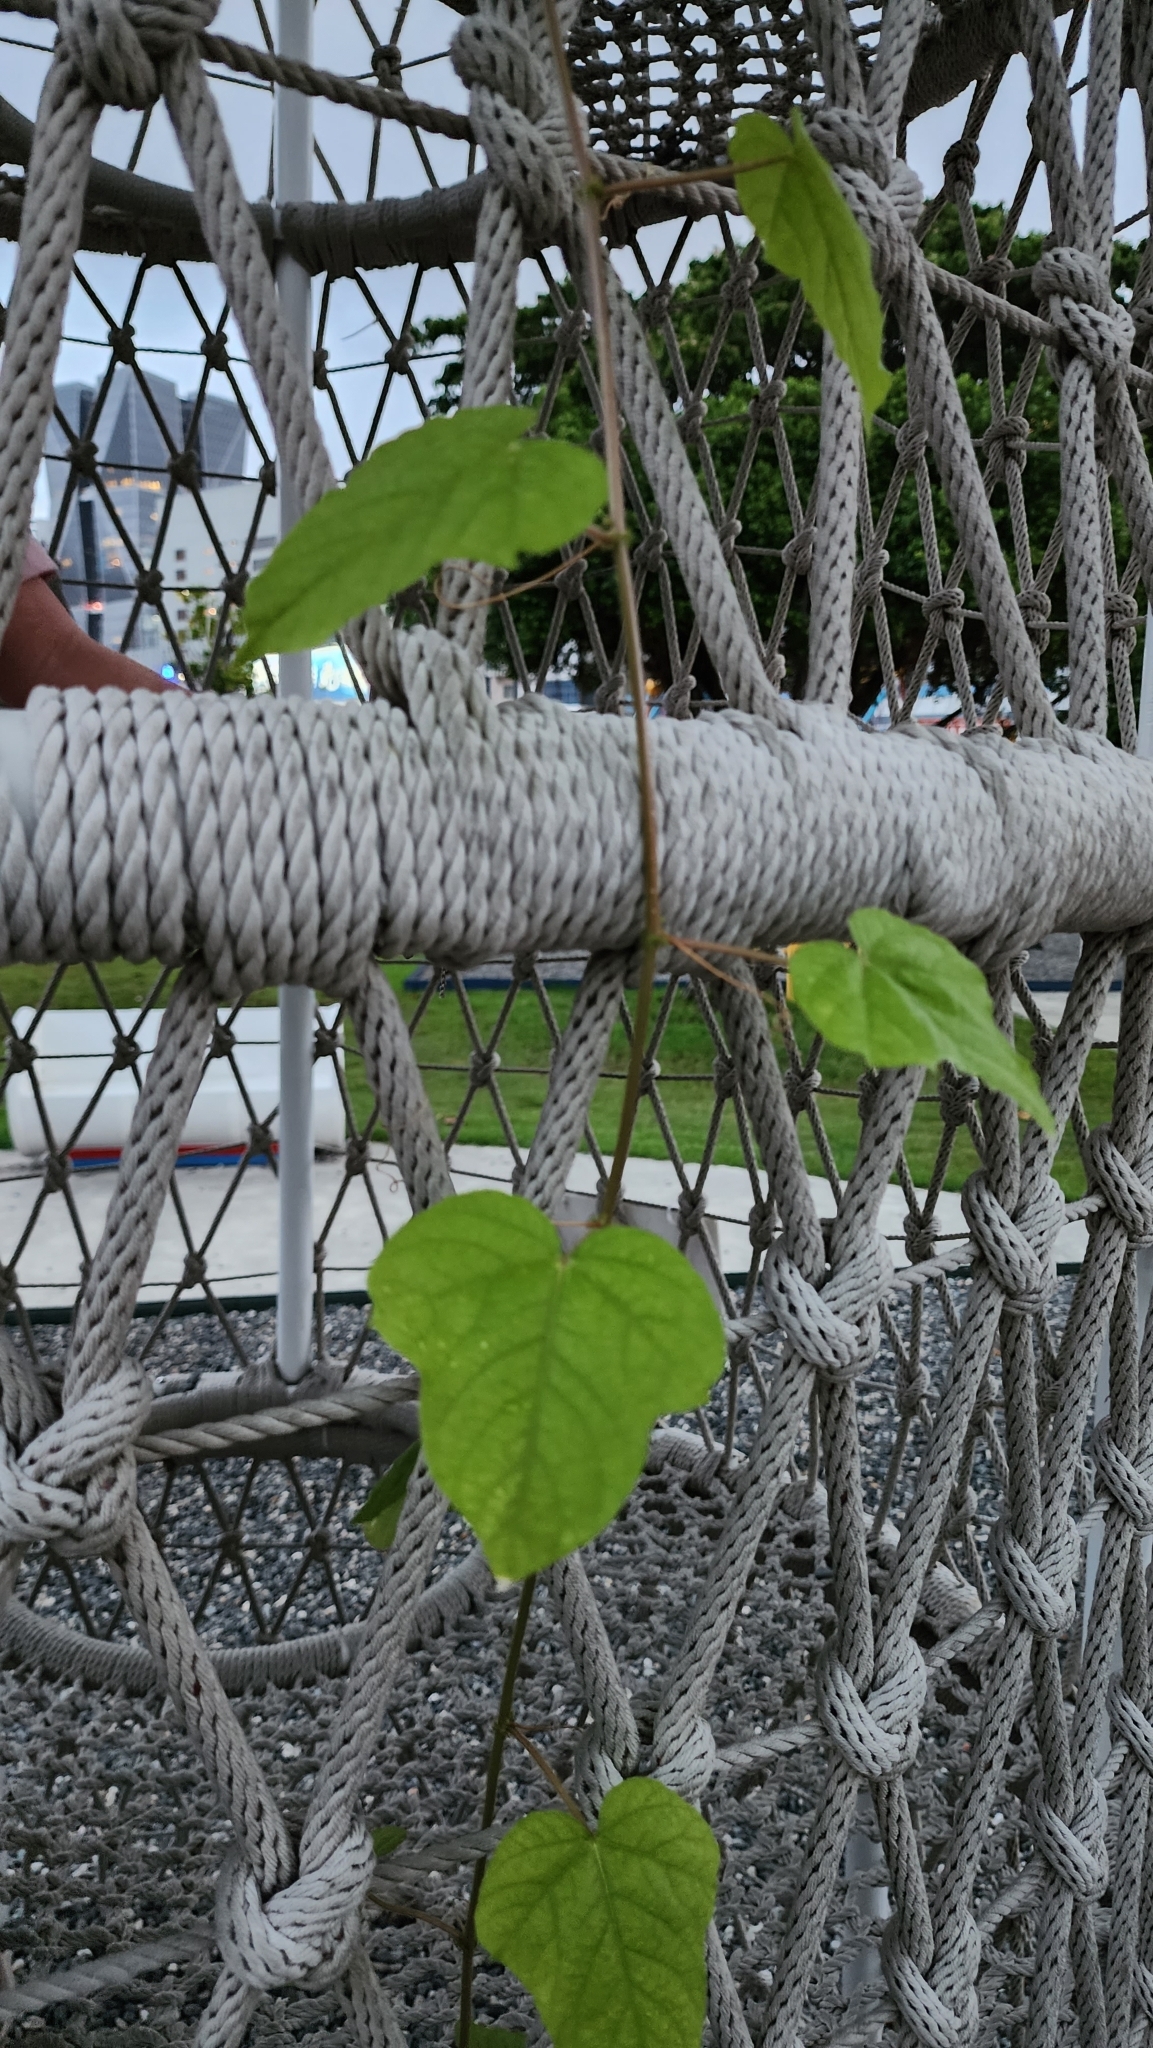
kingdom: Plantae
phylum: Tracheophyta
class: Magnoliopsida
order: Malpighiales
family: Passifloraceae
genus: Passiflora
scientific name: Passiflora vesicaria
